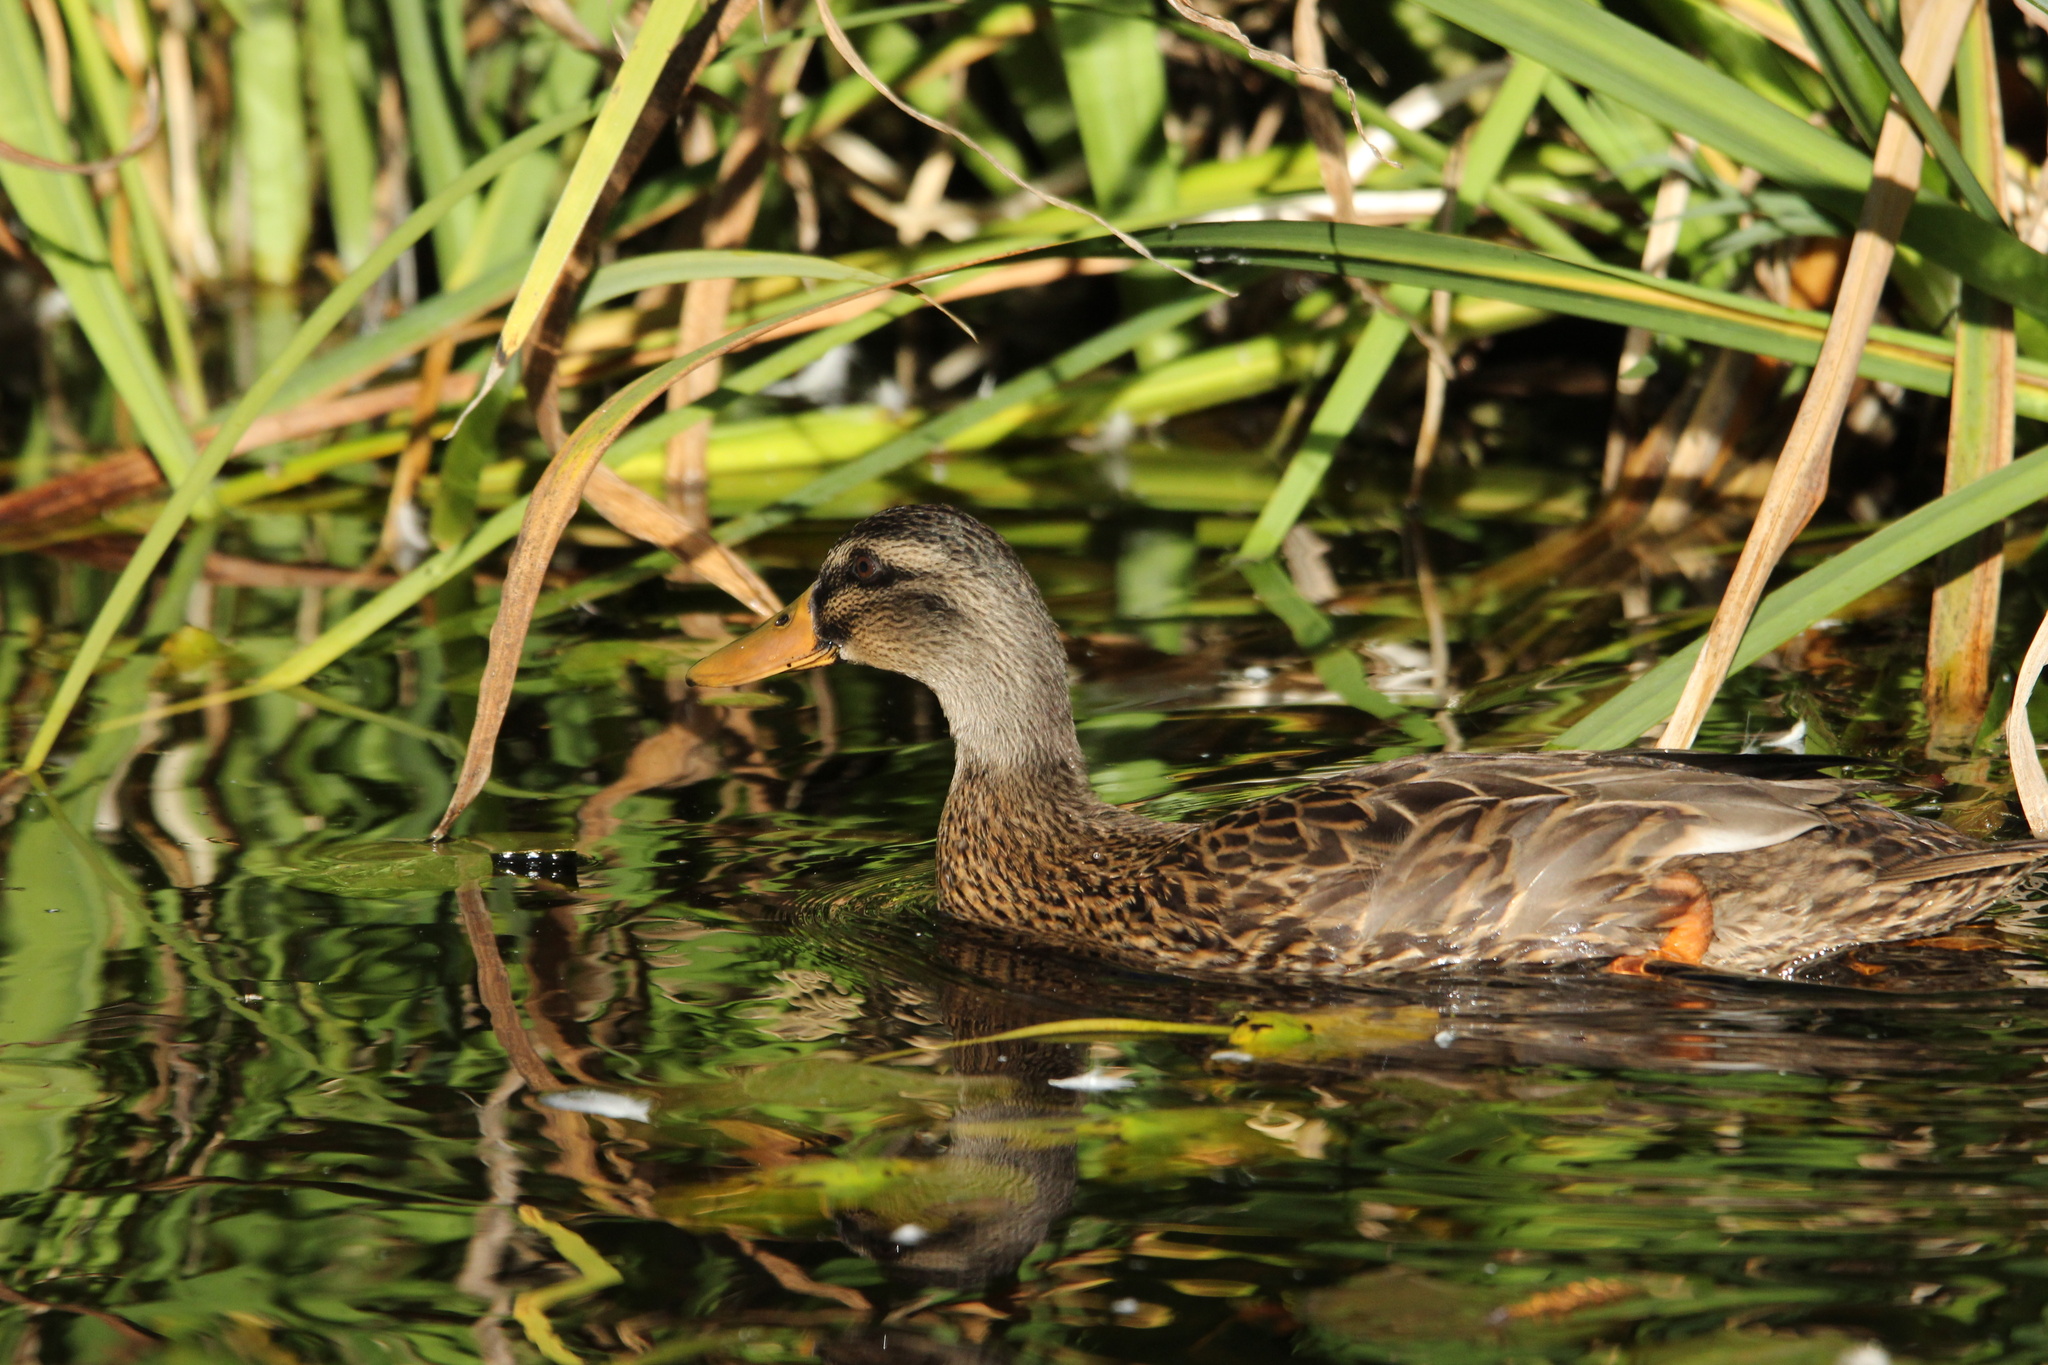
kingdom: Animalia
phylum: Chordata
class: Aves
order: Anseriformes
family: Anatidae
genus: Anas
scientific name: Anas
